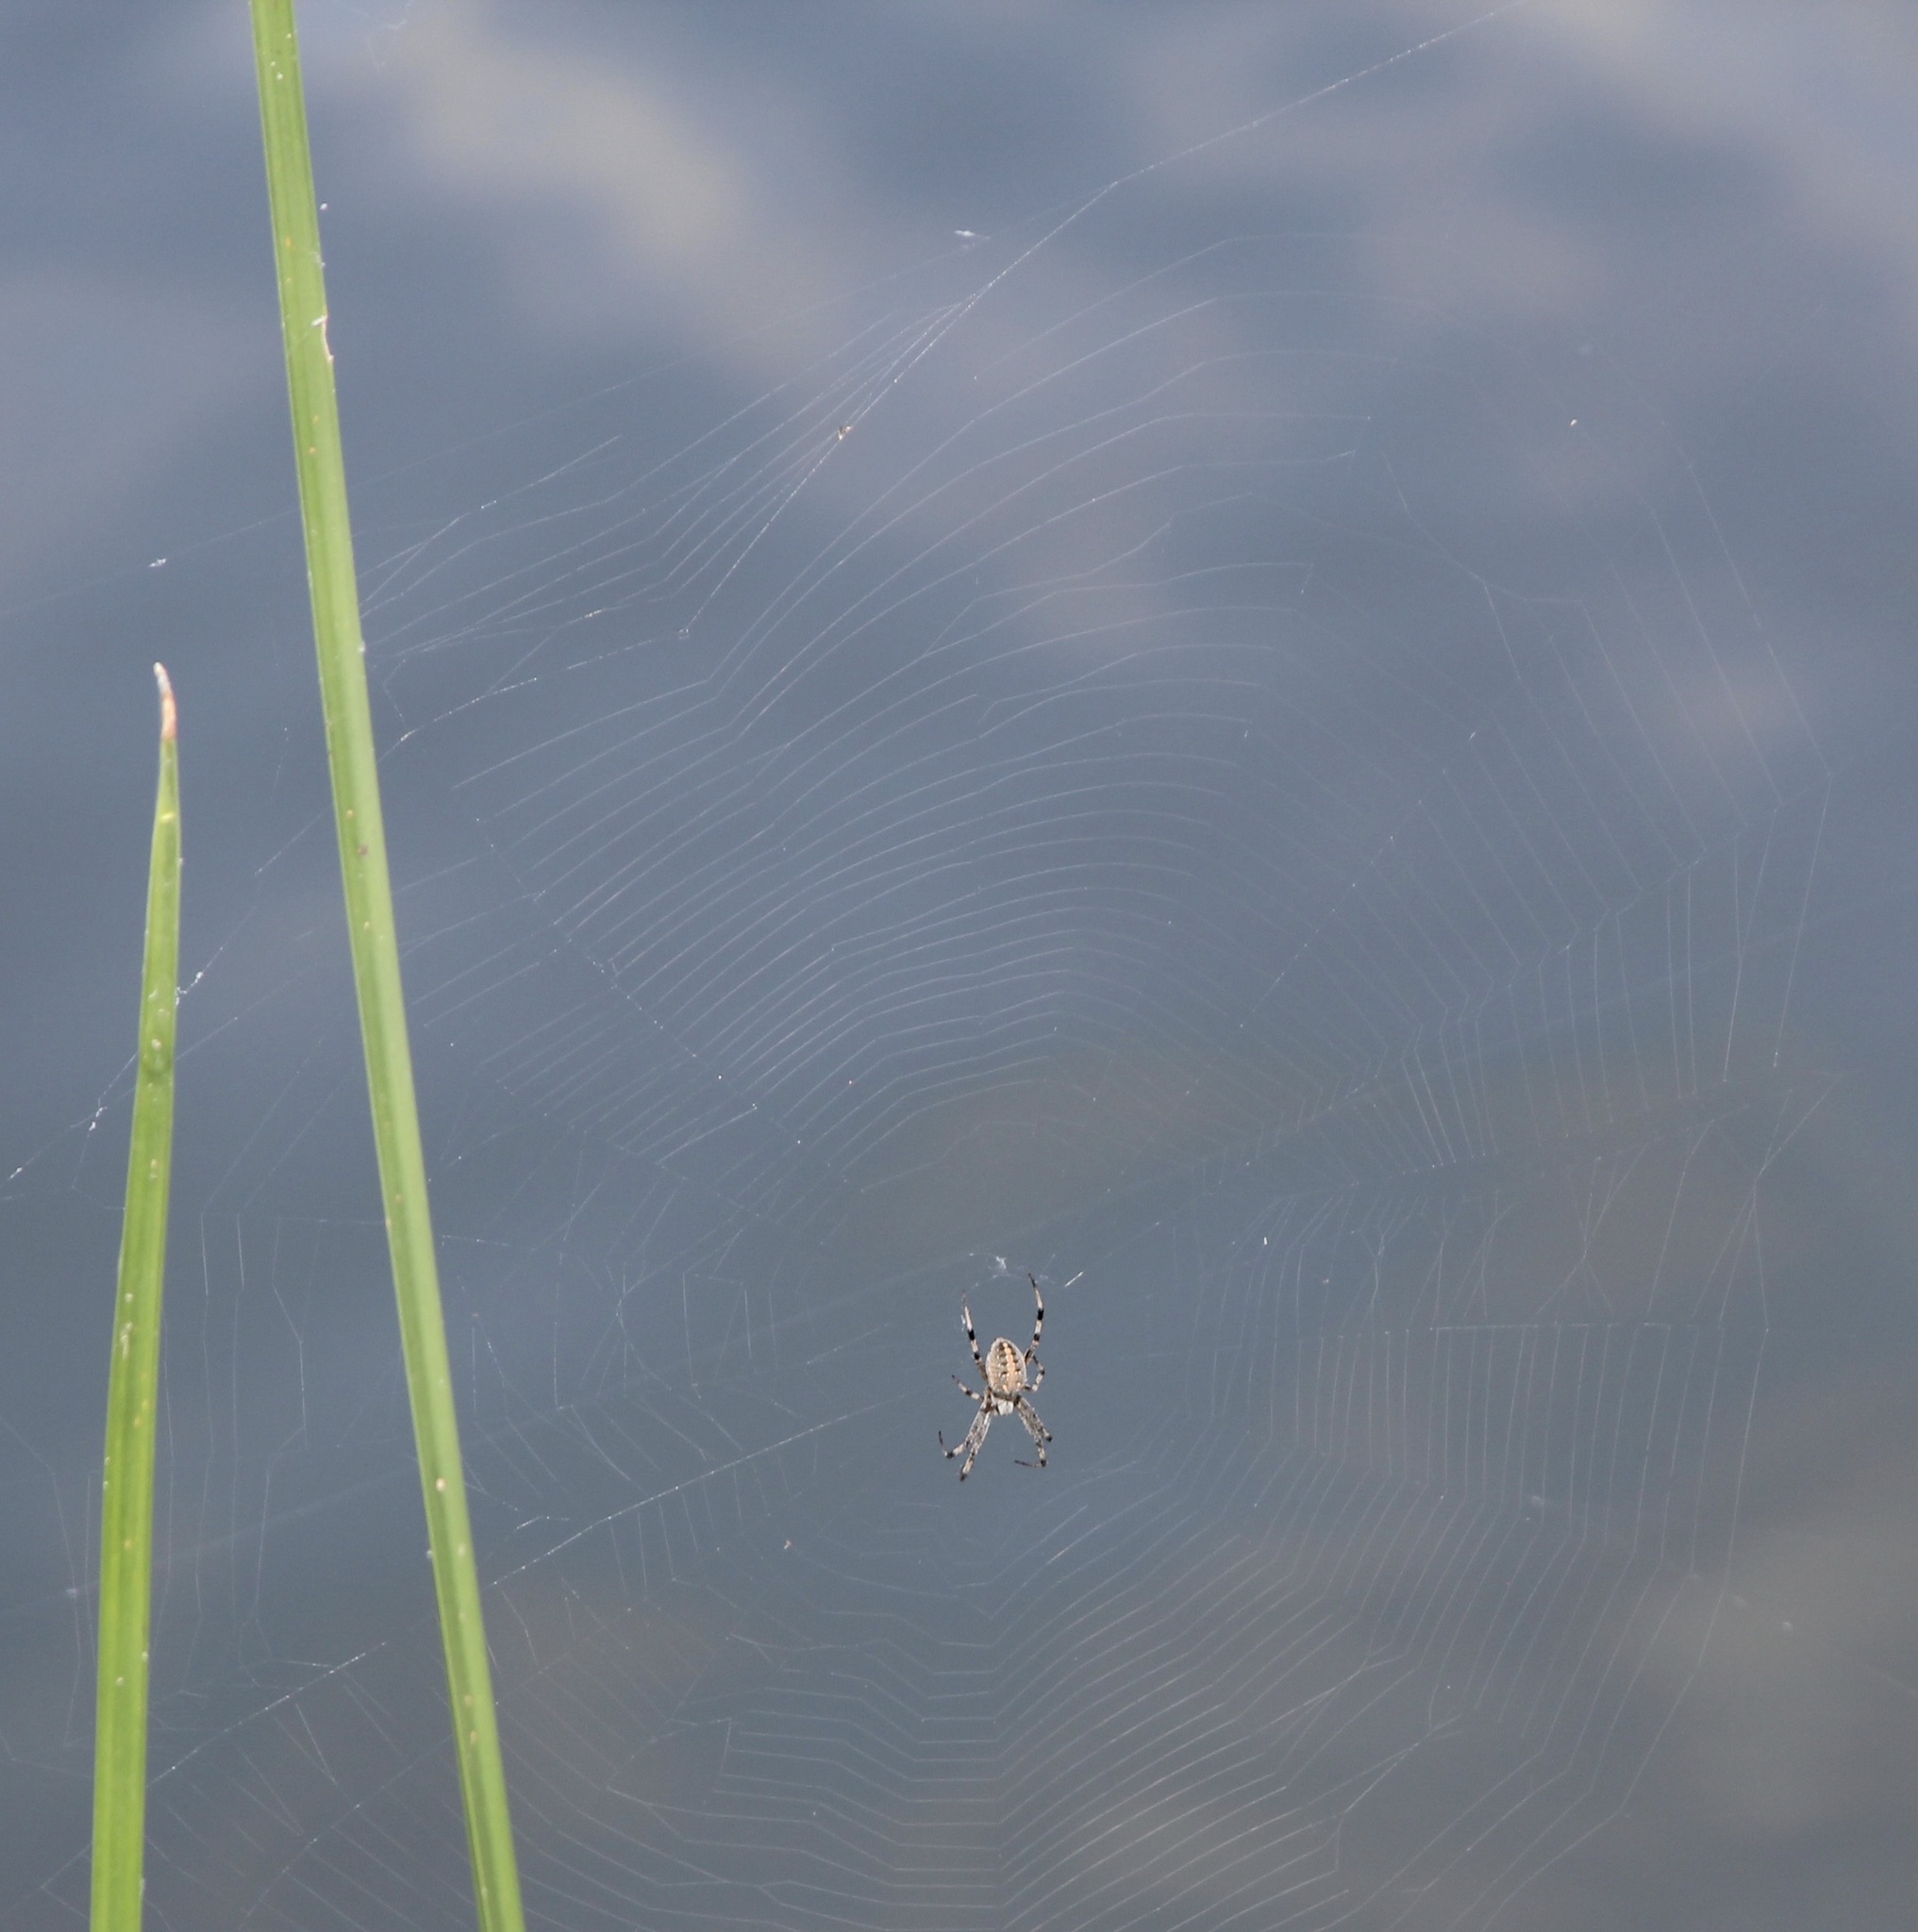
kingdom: Animalia
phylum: Arthropoda
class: Arachnida
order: Araneae
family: Araneidae
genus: Neoscona
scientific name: Neoscona oaxacensis
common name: Orb weavers
